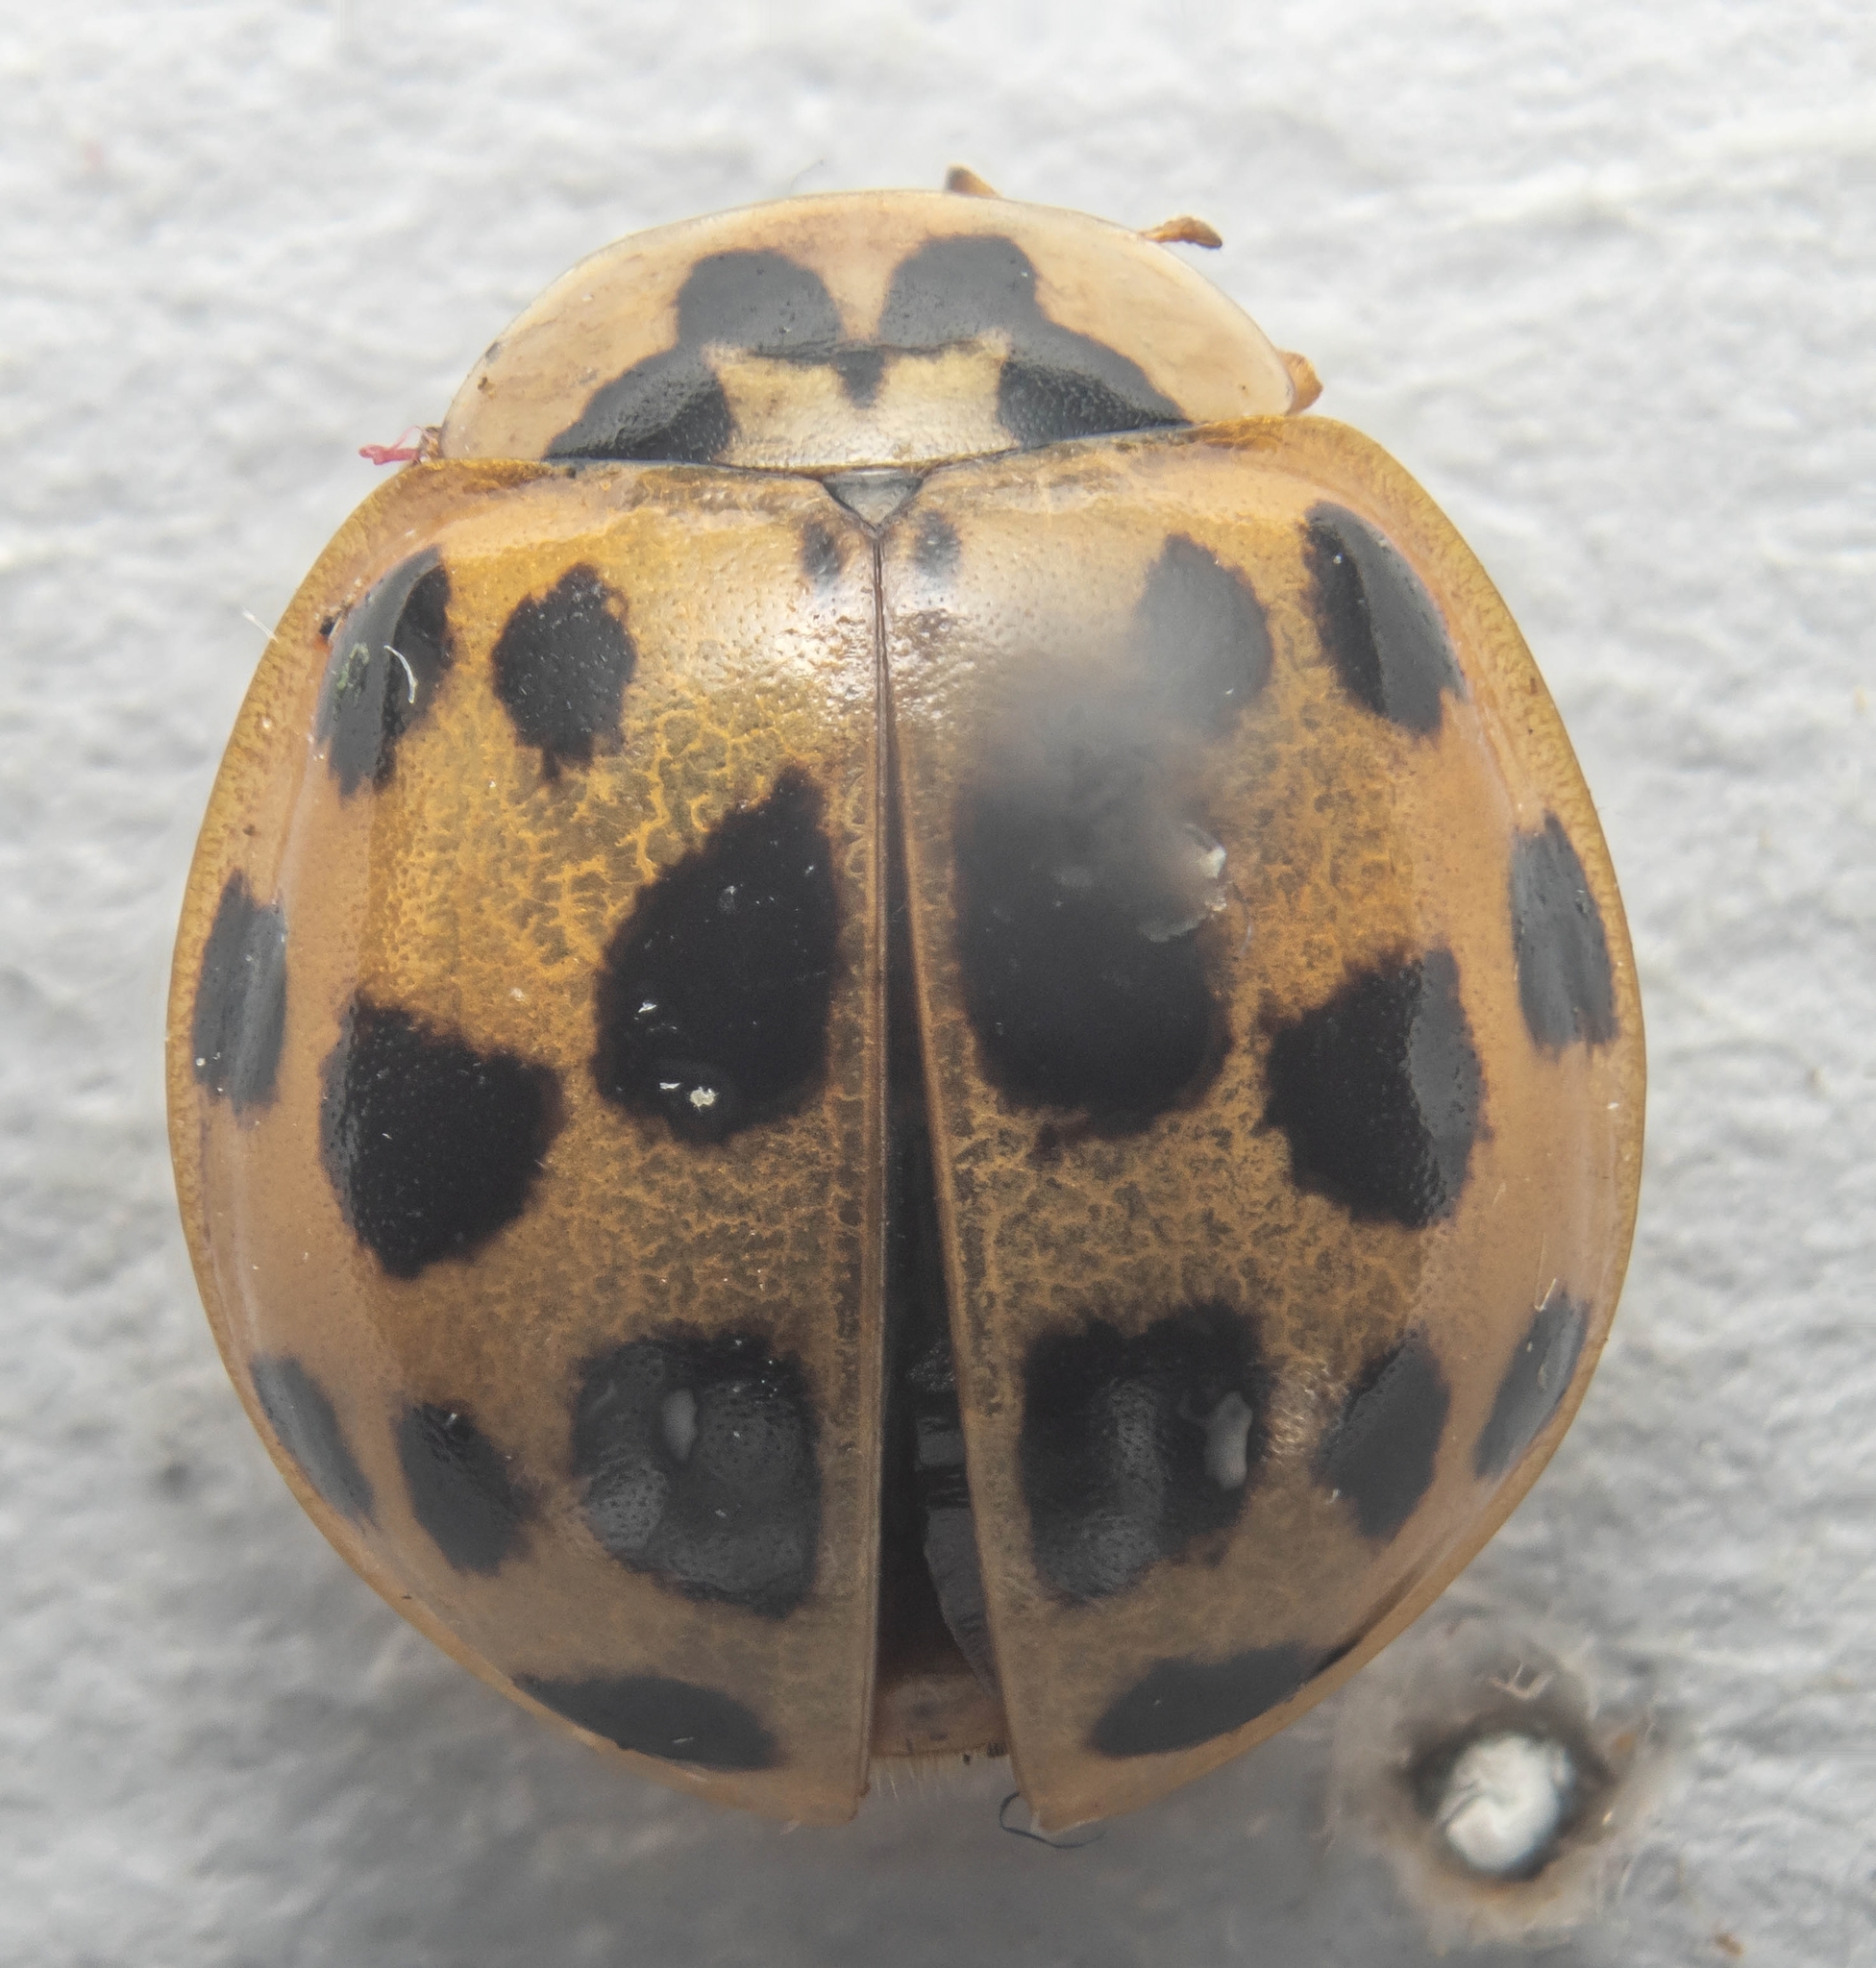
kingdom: Animalia
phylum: Arthropoda
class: Insecta
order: Coleoptera
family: Coccinellidae
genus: Harmonia
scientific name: Harmonia axyridis
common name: Harlequin ladybird
